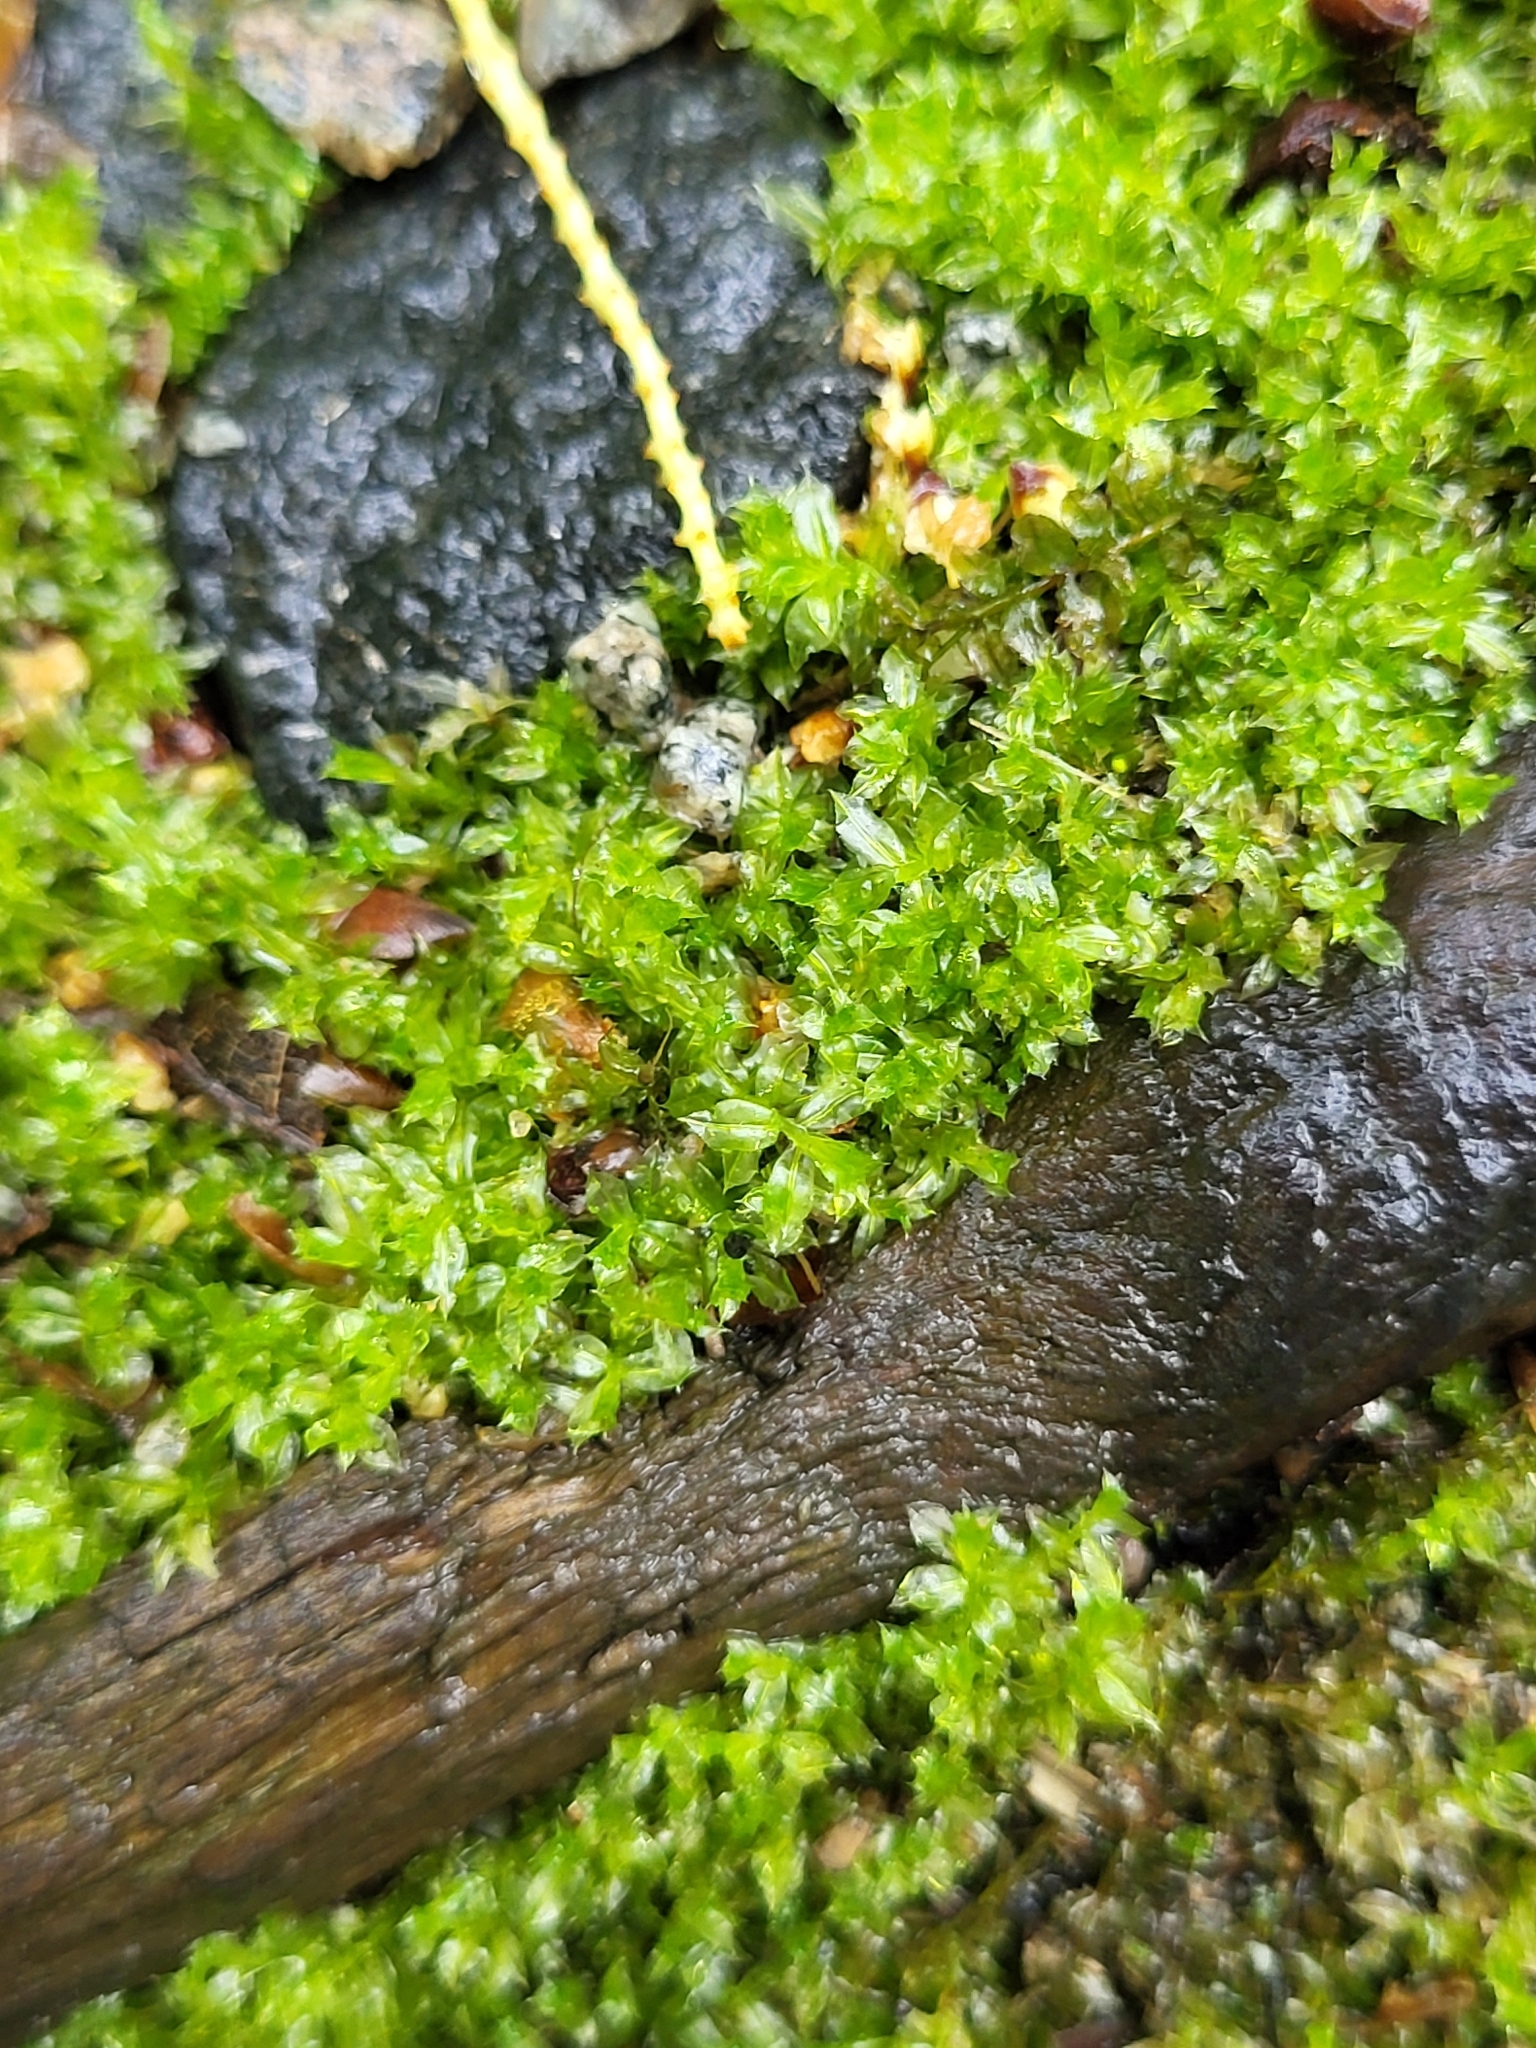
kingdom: Plantae
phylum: Bryophyta
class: Bryopsida
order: Bryales
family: Mniaceae
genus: Plagiomnium
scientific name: Plagiomnium cuspidatum
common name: Woodsy leafy moss
